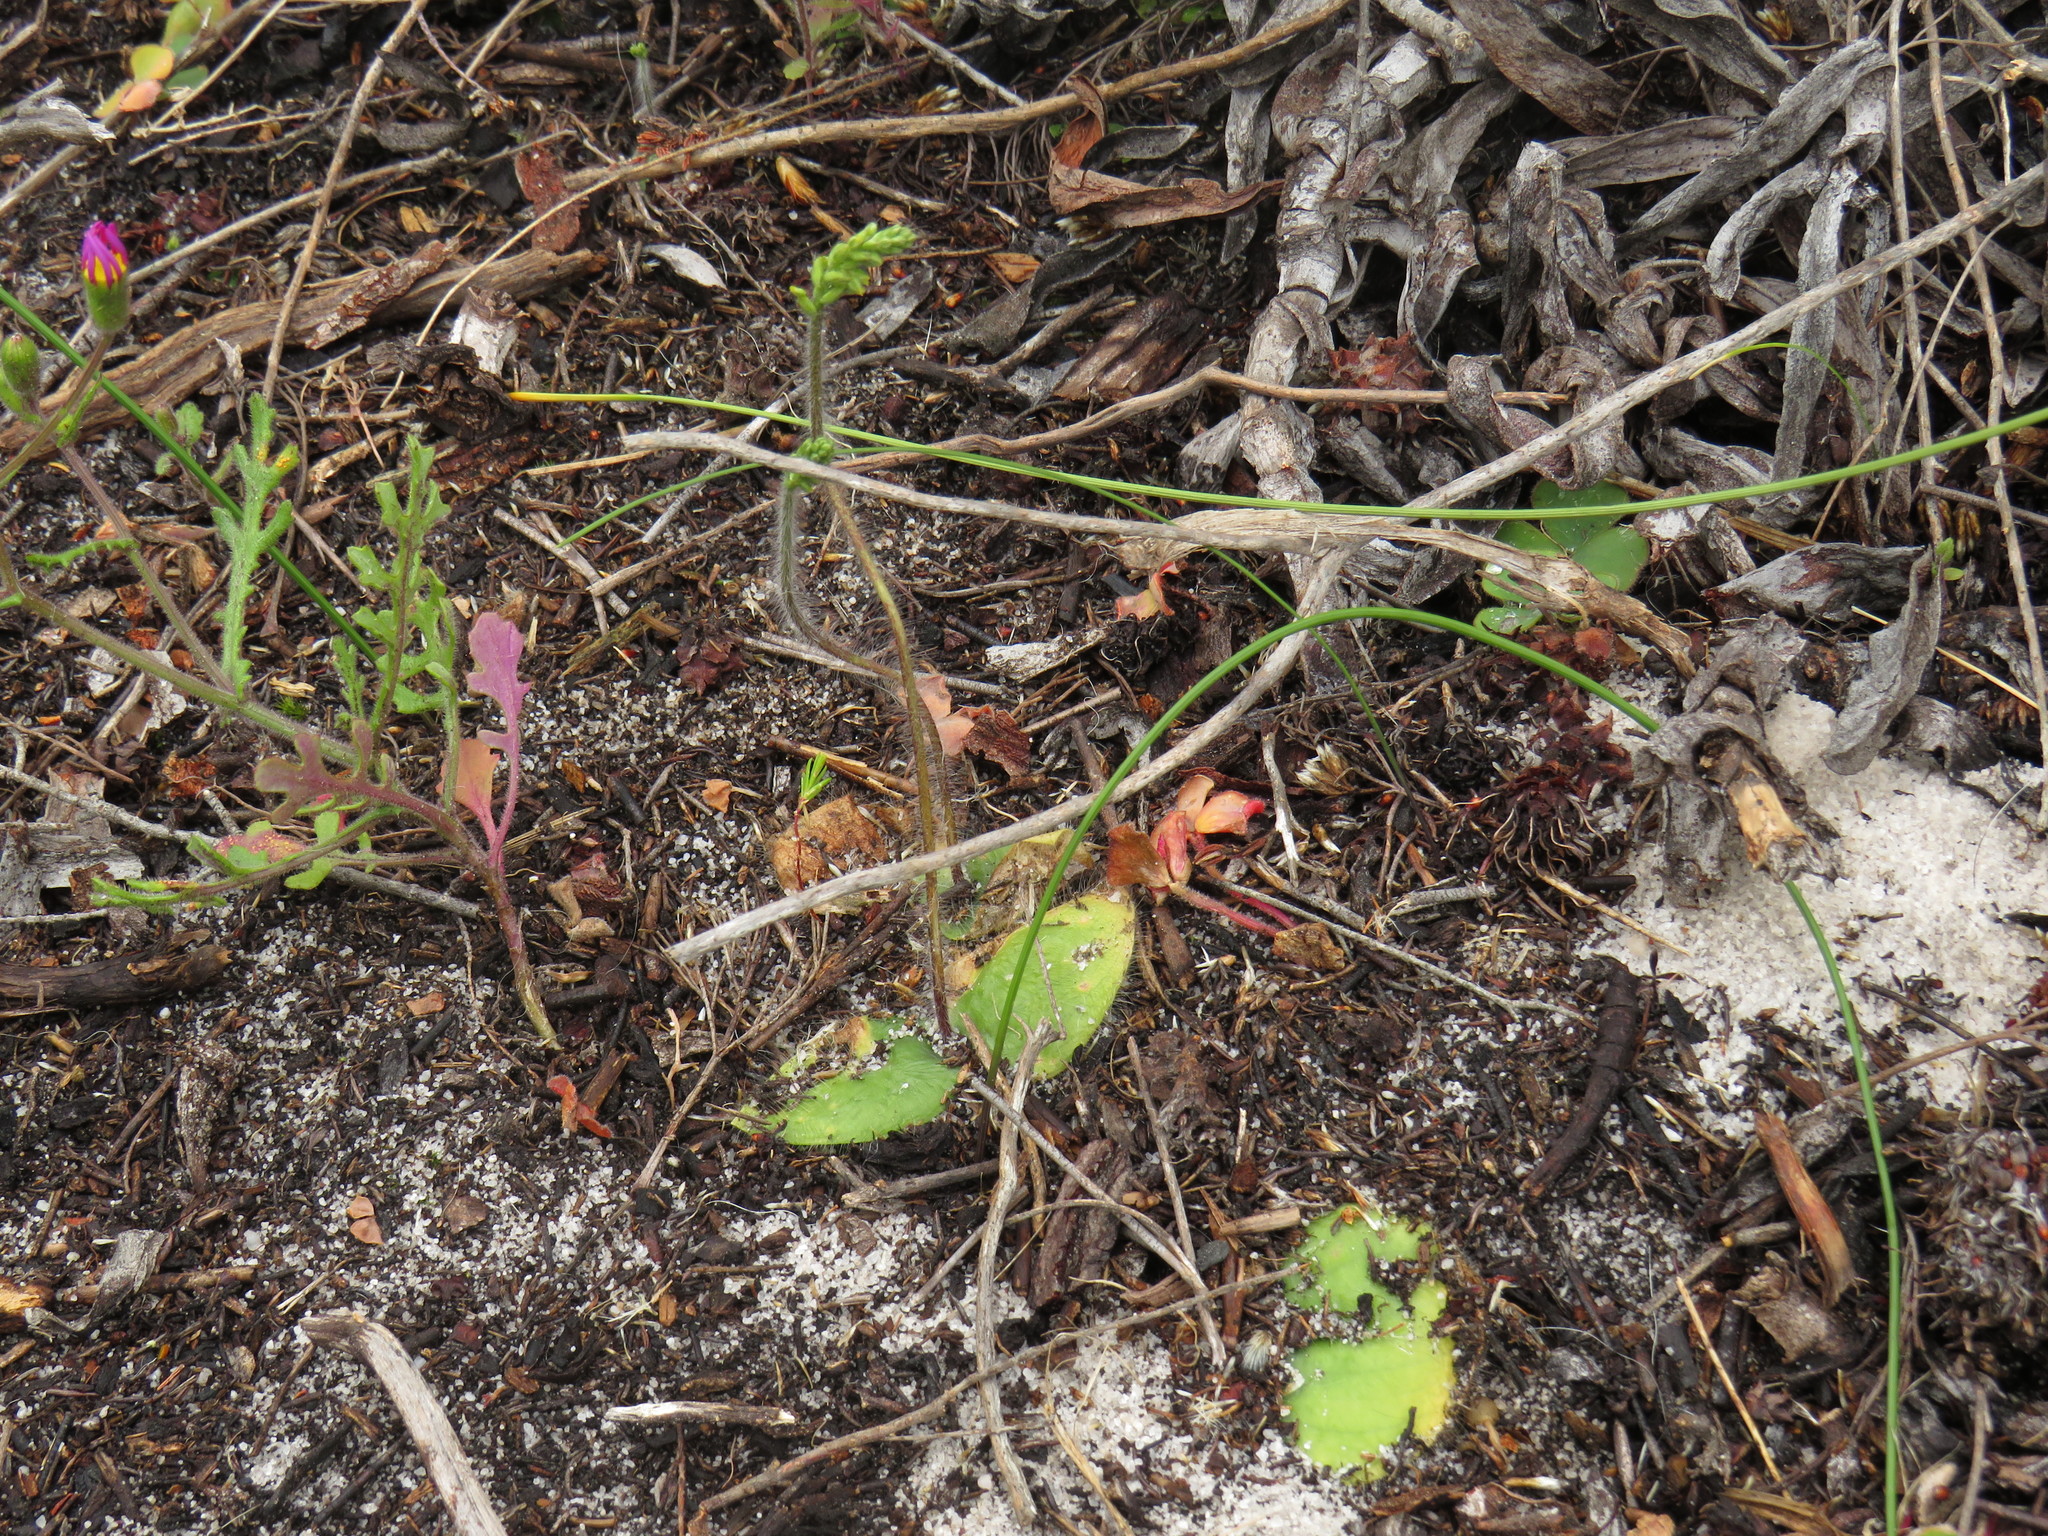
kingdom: Plantae
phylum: Tracheophyta
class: Liliopsida
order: Asparagales
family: Orchidaceae
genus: Holothrix
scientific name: Holothrix villosa
